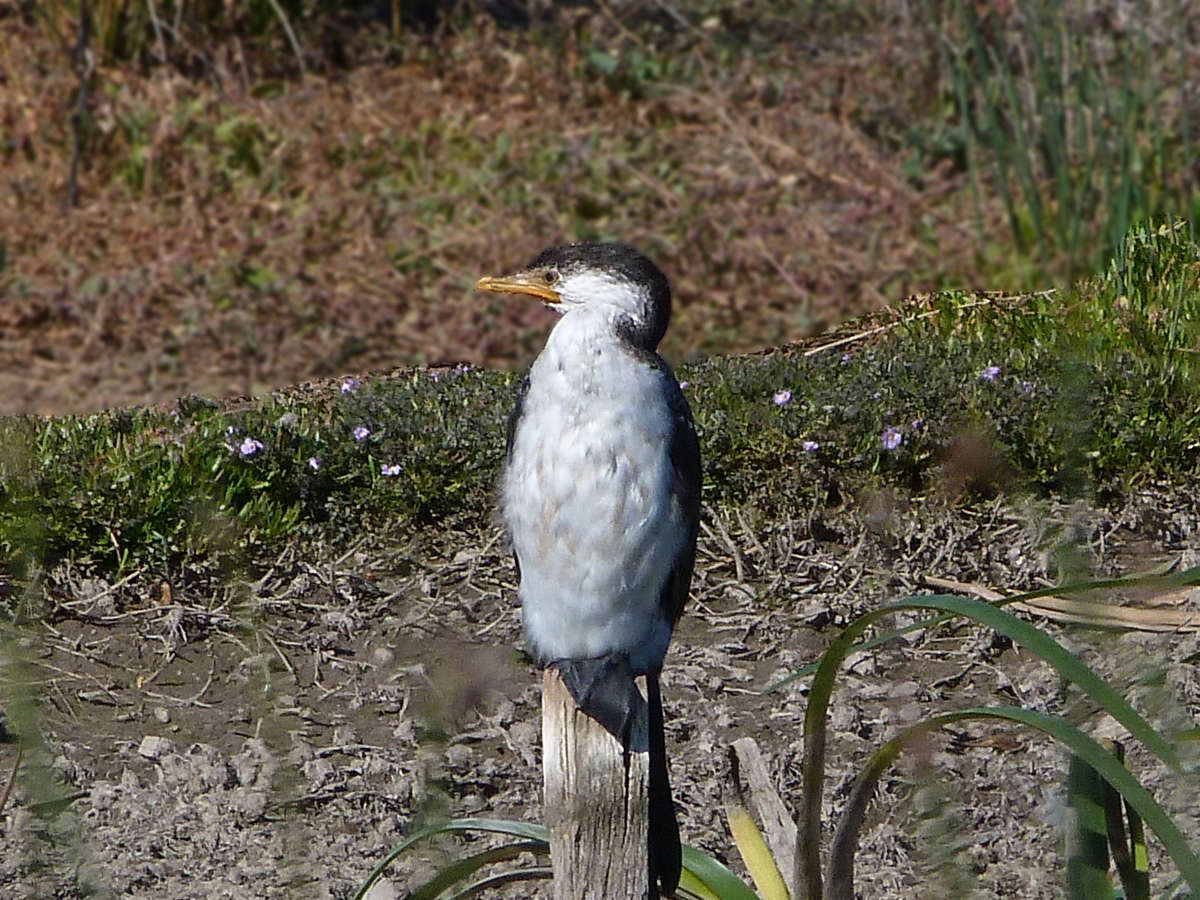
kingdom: Animalia
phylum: Chordata
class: Aves
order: Suliformes
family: Phalacrocoracidae
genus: Microcarbo
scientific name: Microcarbo melanoleucos
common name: Little pied cormorant
